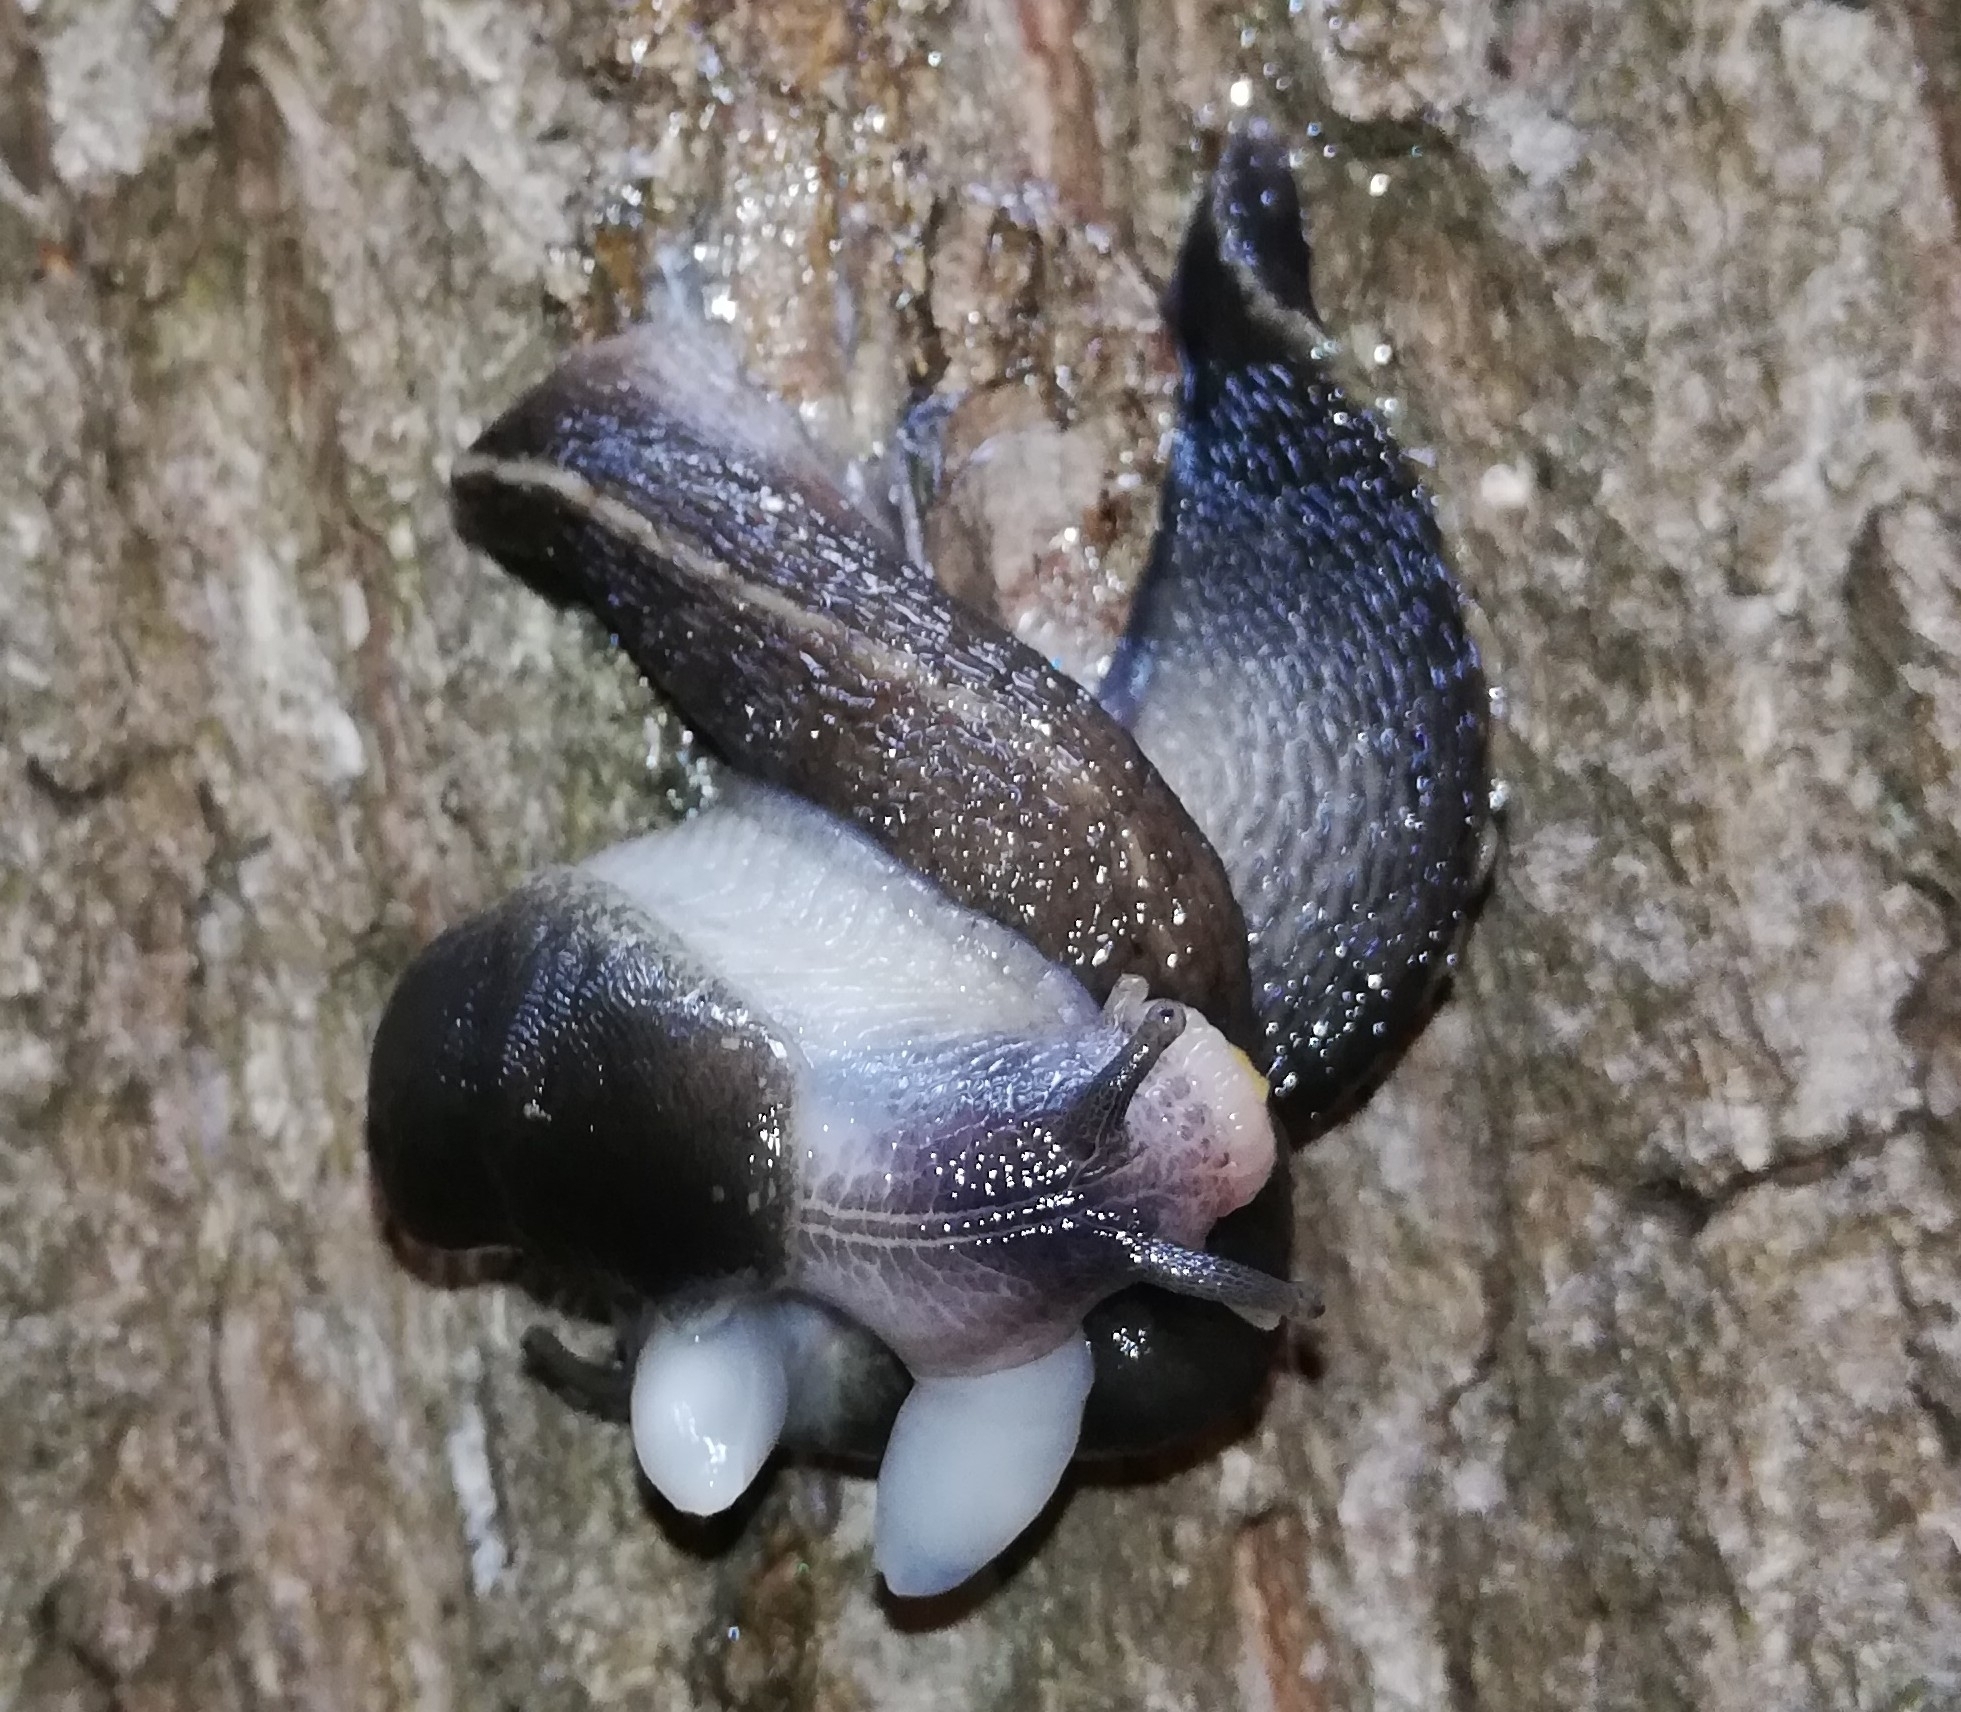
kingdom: Animalia
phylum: Mollusca
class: Gastropoda
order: Stylommatophora
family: Limacidae
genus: Limax
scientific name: Limax cinereoniger
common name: Ash-black slug
